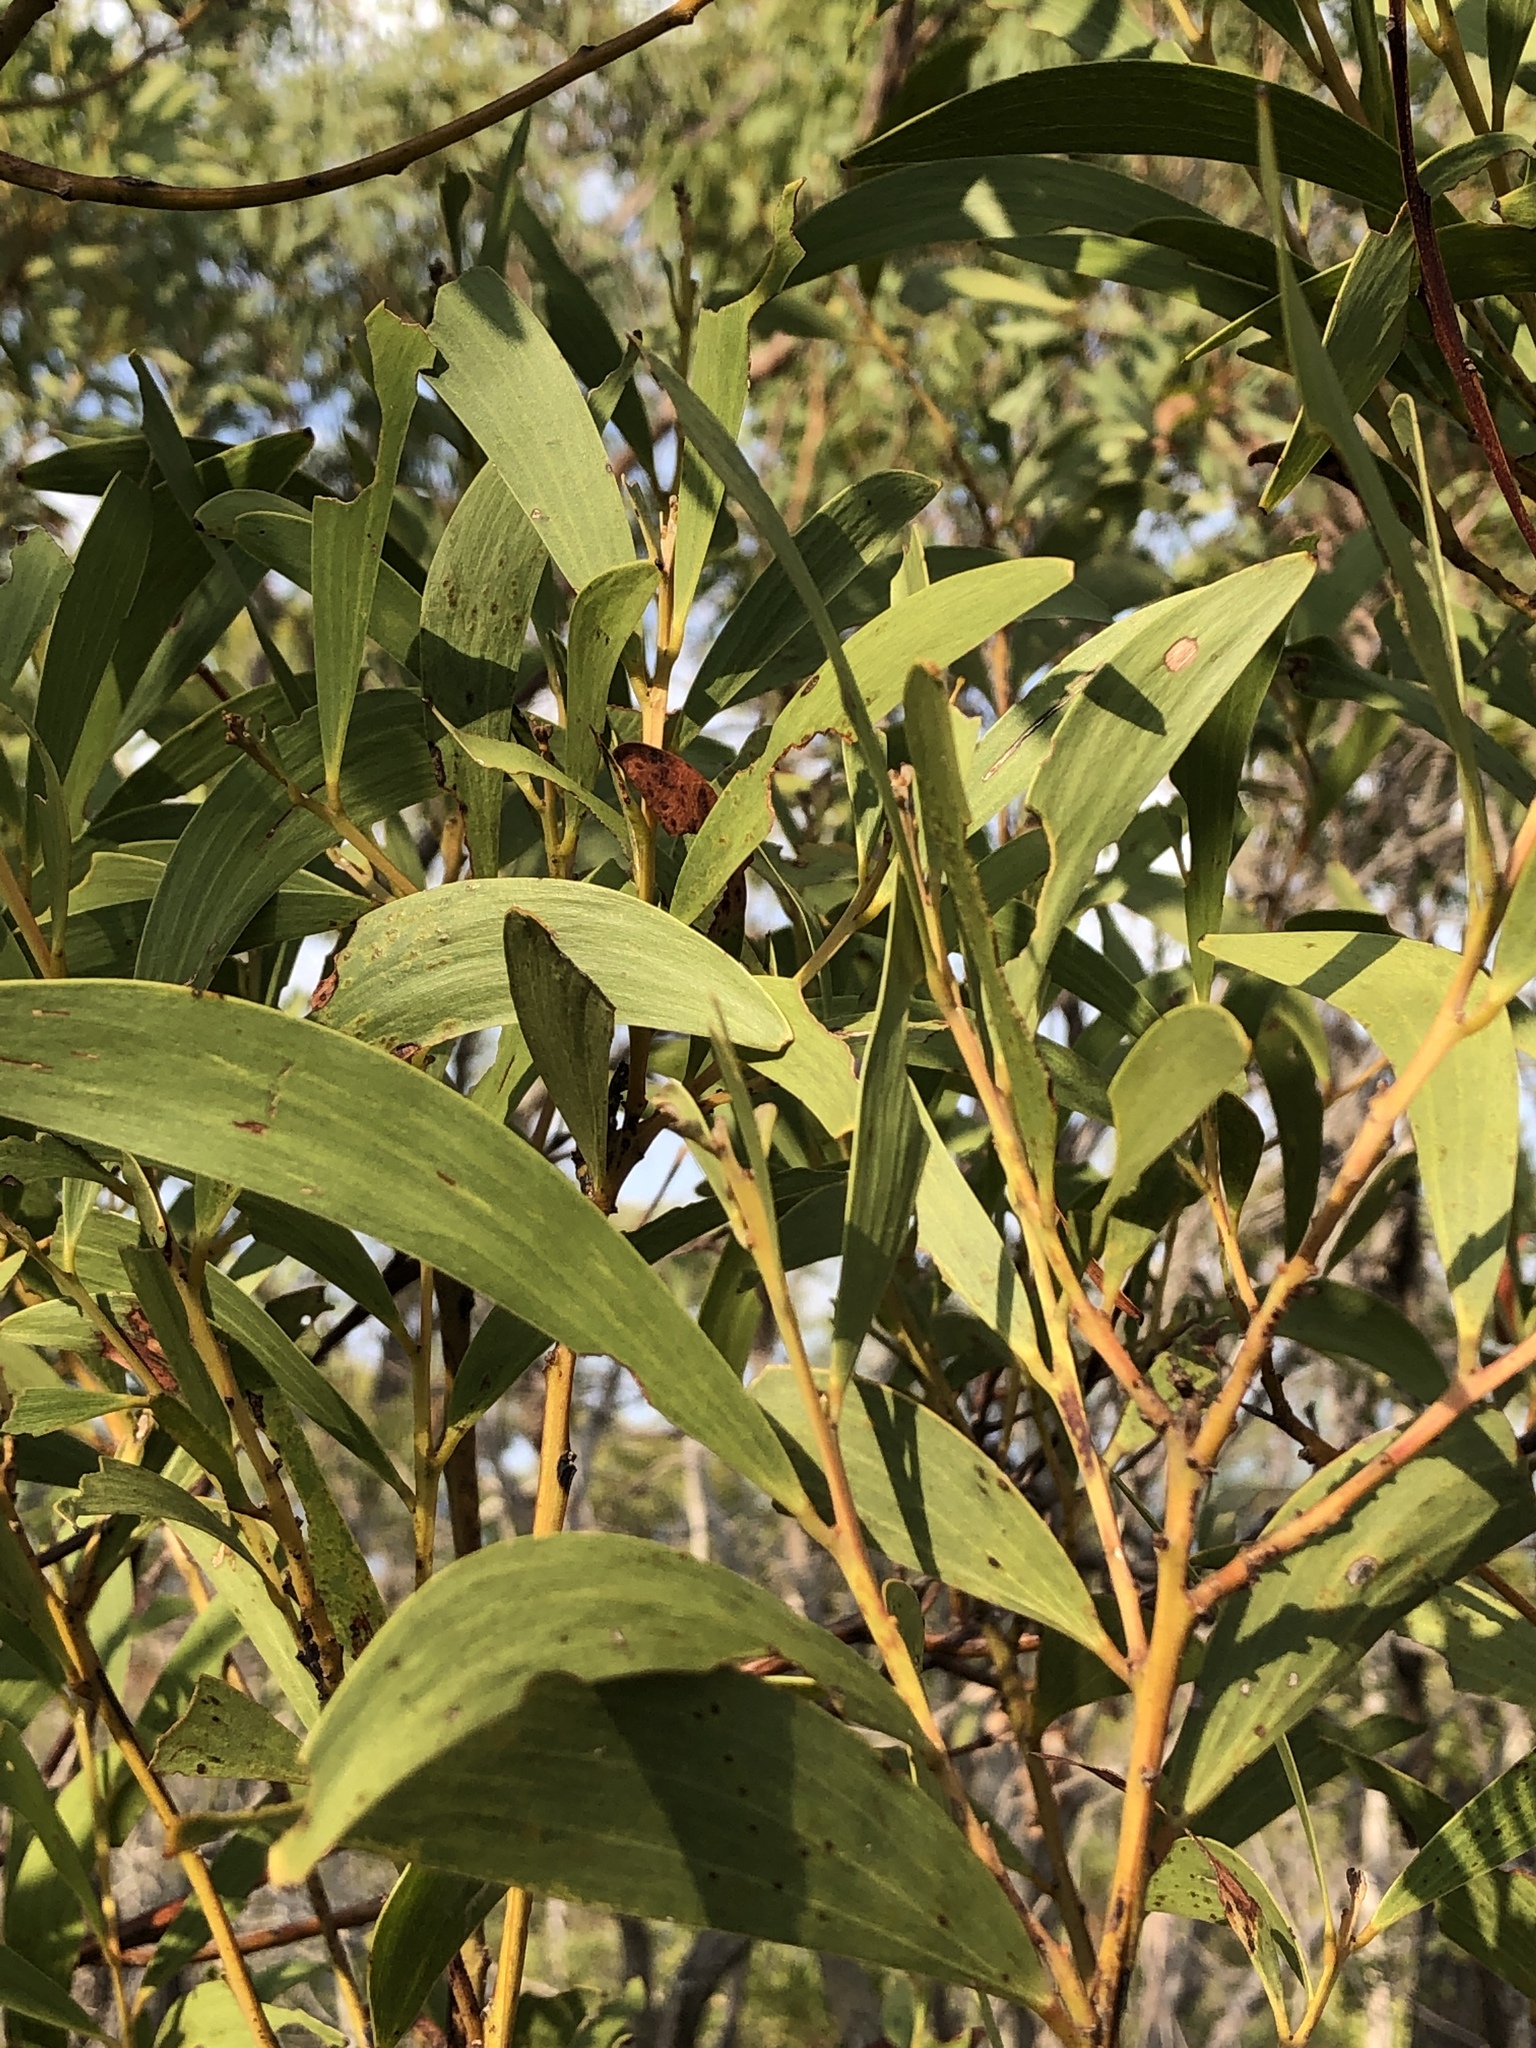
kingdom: Plantae
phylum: Tracheophyta
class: Magnoliopsida
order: Fabales
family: Fabaceae
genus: Acacia
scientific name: Acacia leiocalyx
